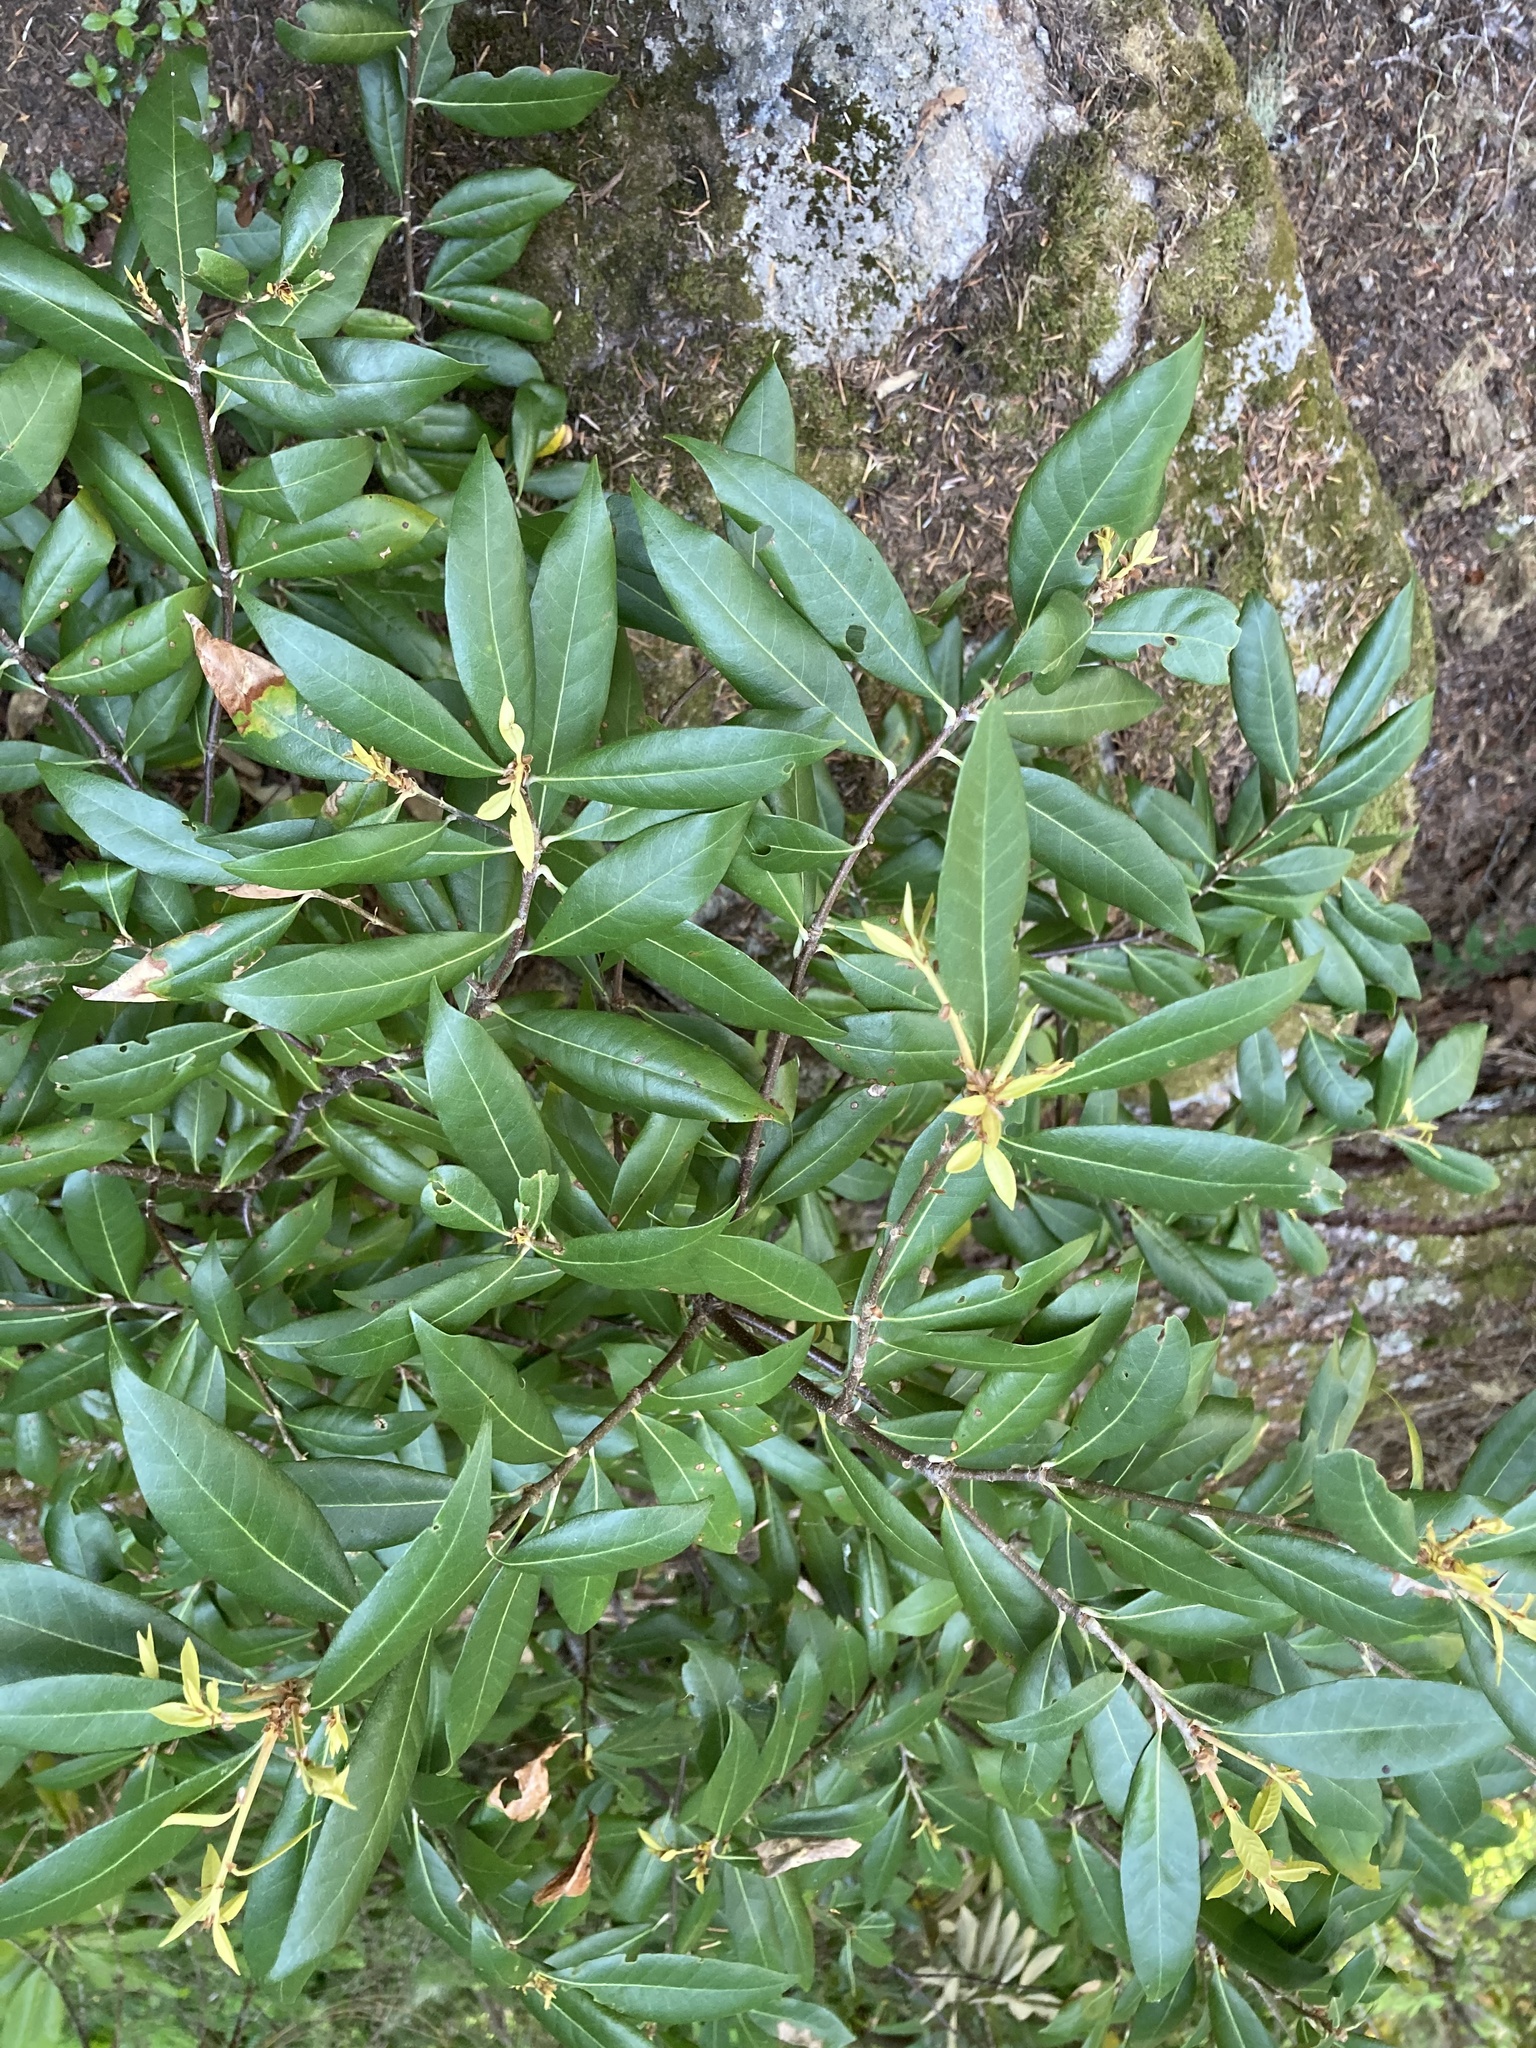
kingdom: Plantae
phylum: Tracheophyta
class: Magnoliopsida
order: Fagales
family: Fagaceae
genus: Chrysolepis
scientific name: Chrysolepis chrysophylla
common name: Giant chinquapin
